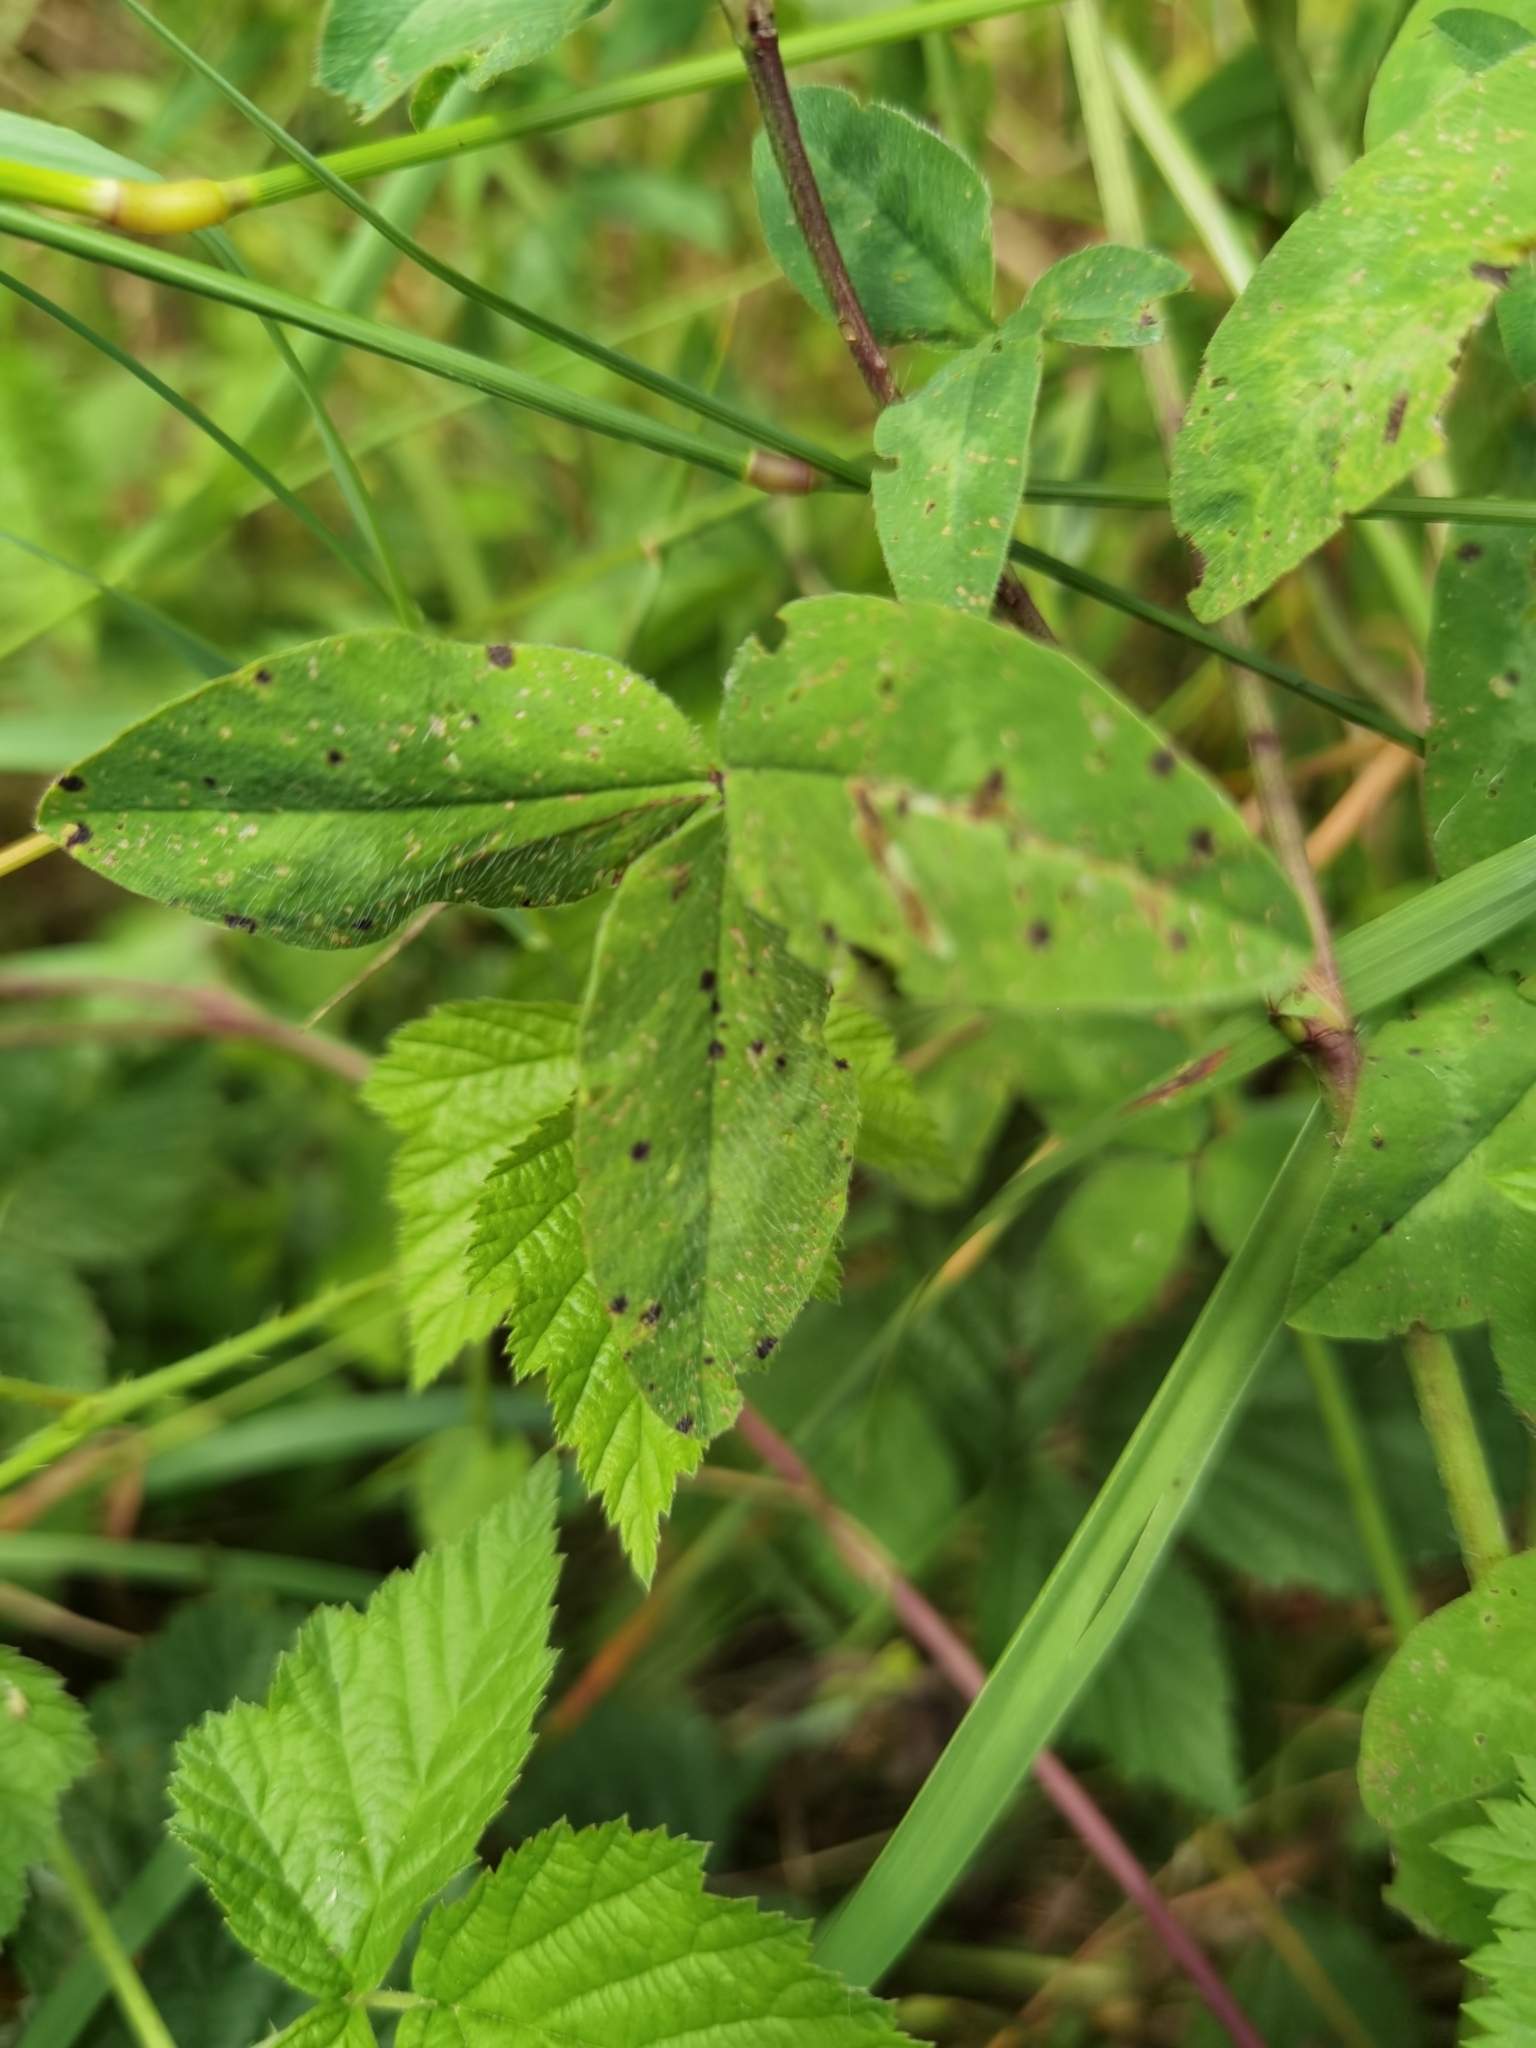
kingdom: Plantae
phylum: Tracheophyta
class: Magnoliopsida
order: Fabales
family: Fabaceae
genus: Trifolium
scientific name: Trifolium pratense
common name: Red clover
